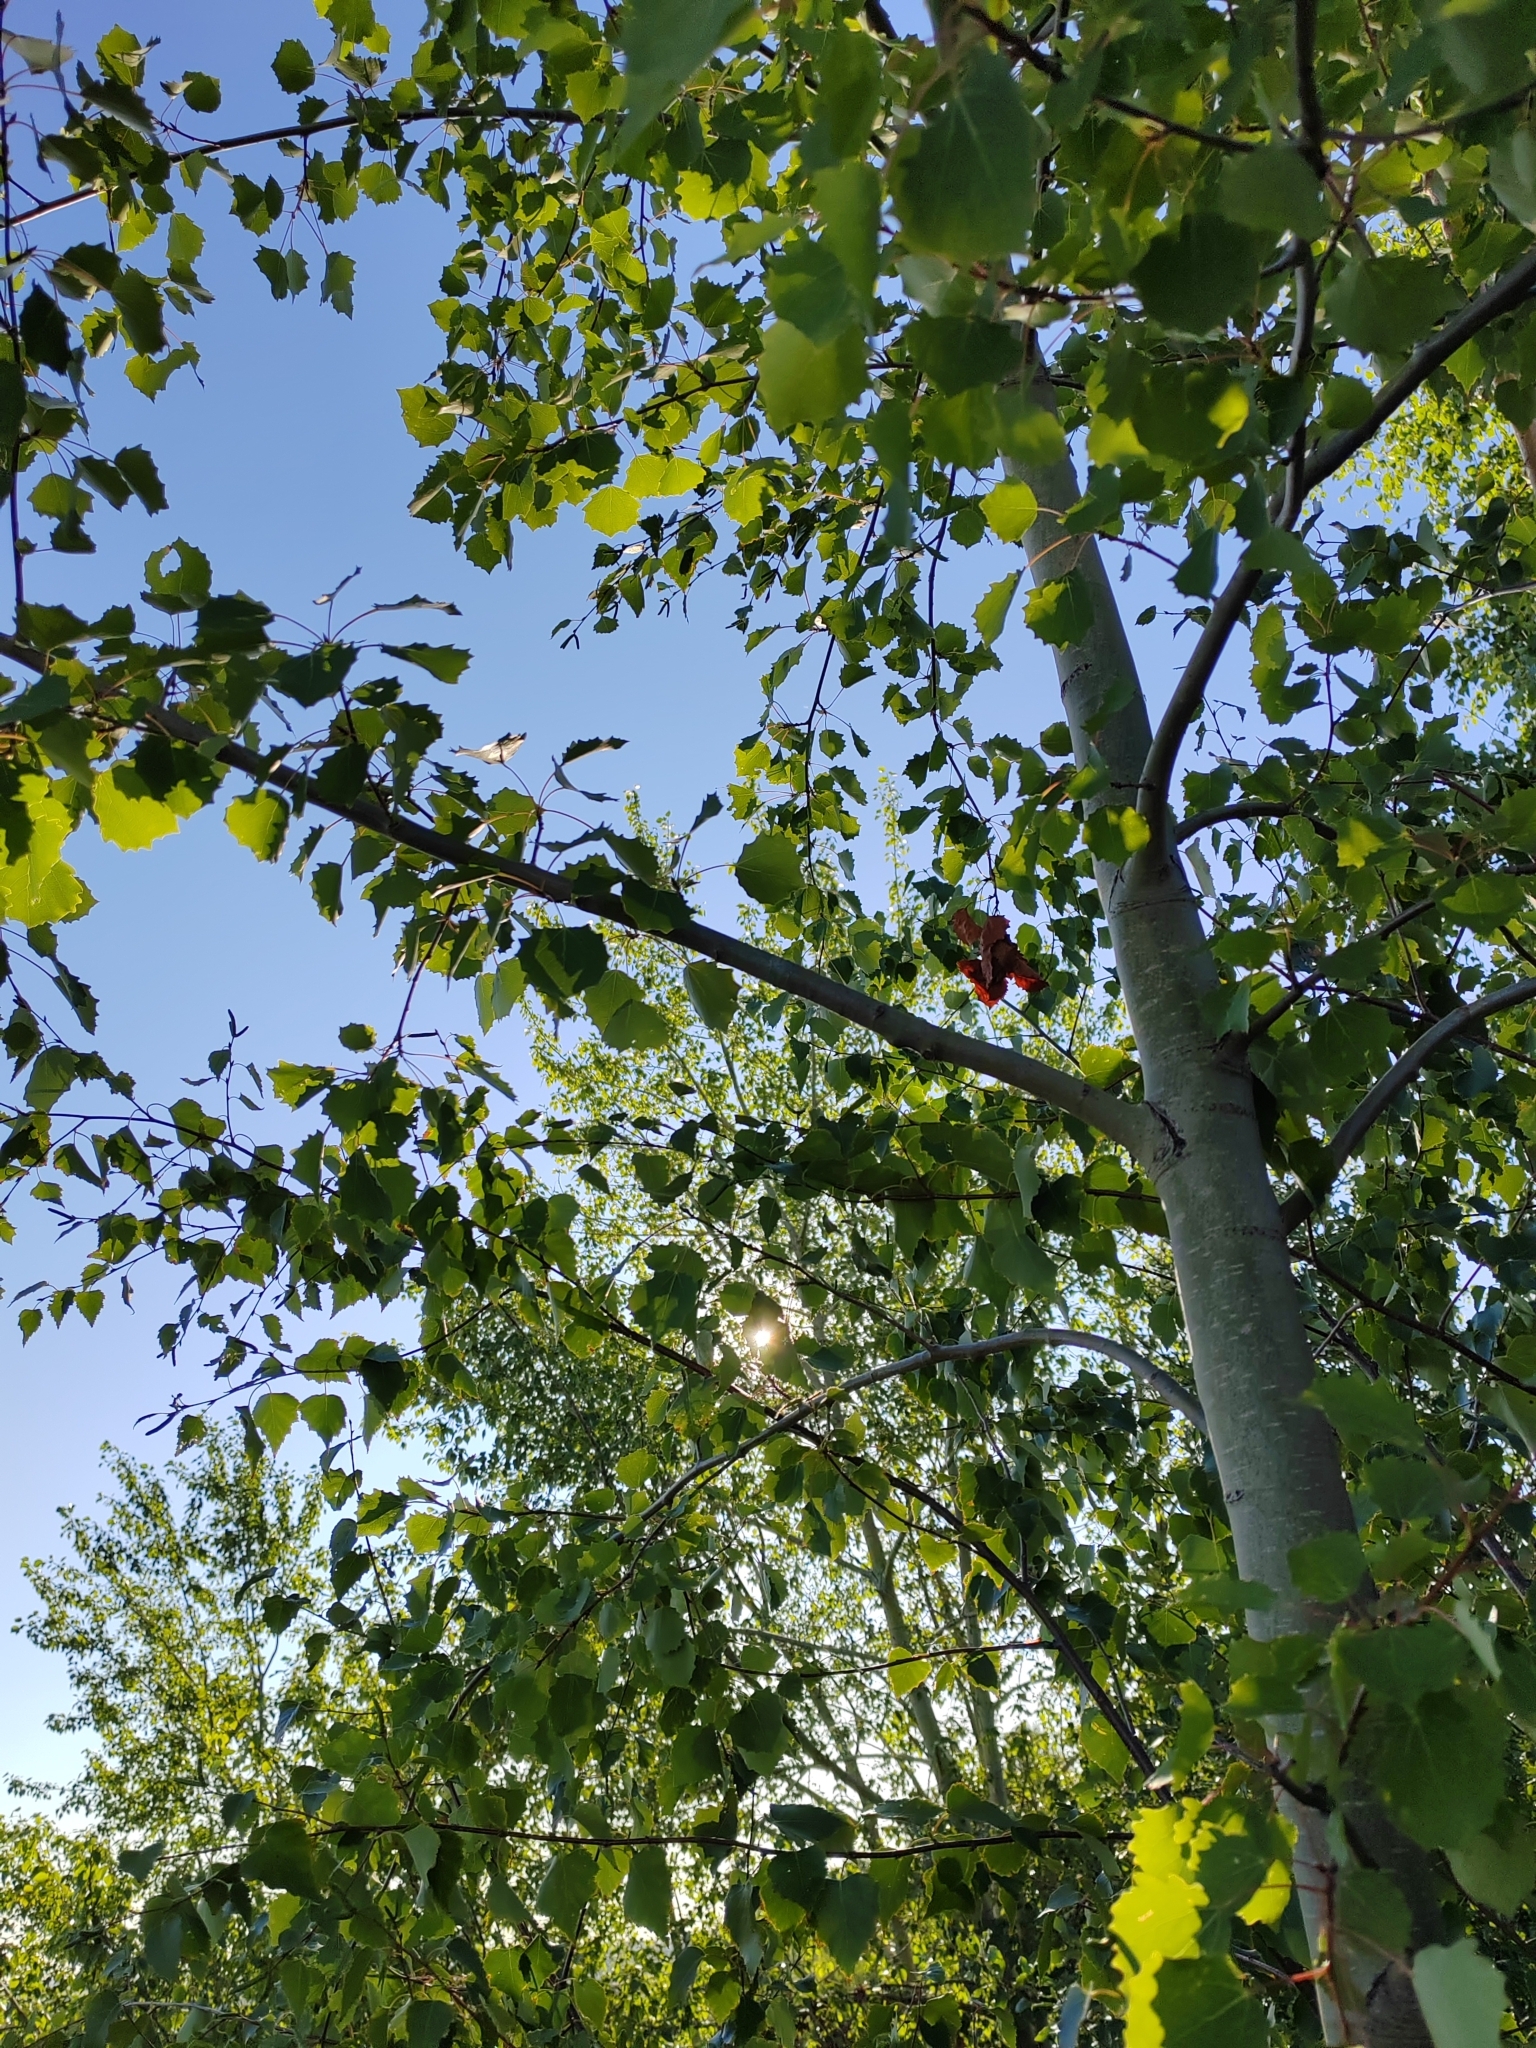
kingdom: Plantae
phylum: Tracheophyta
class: Magnoliopsida
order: Malpighiales
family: Salicaceae
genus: Populus
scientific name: Populus tremula
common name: European aspen
